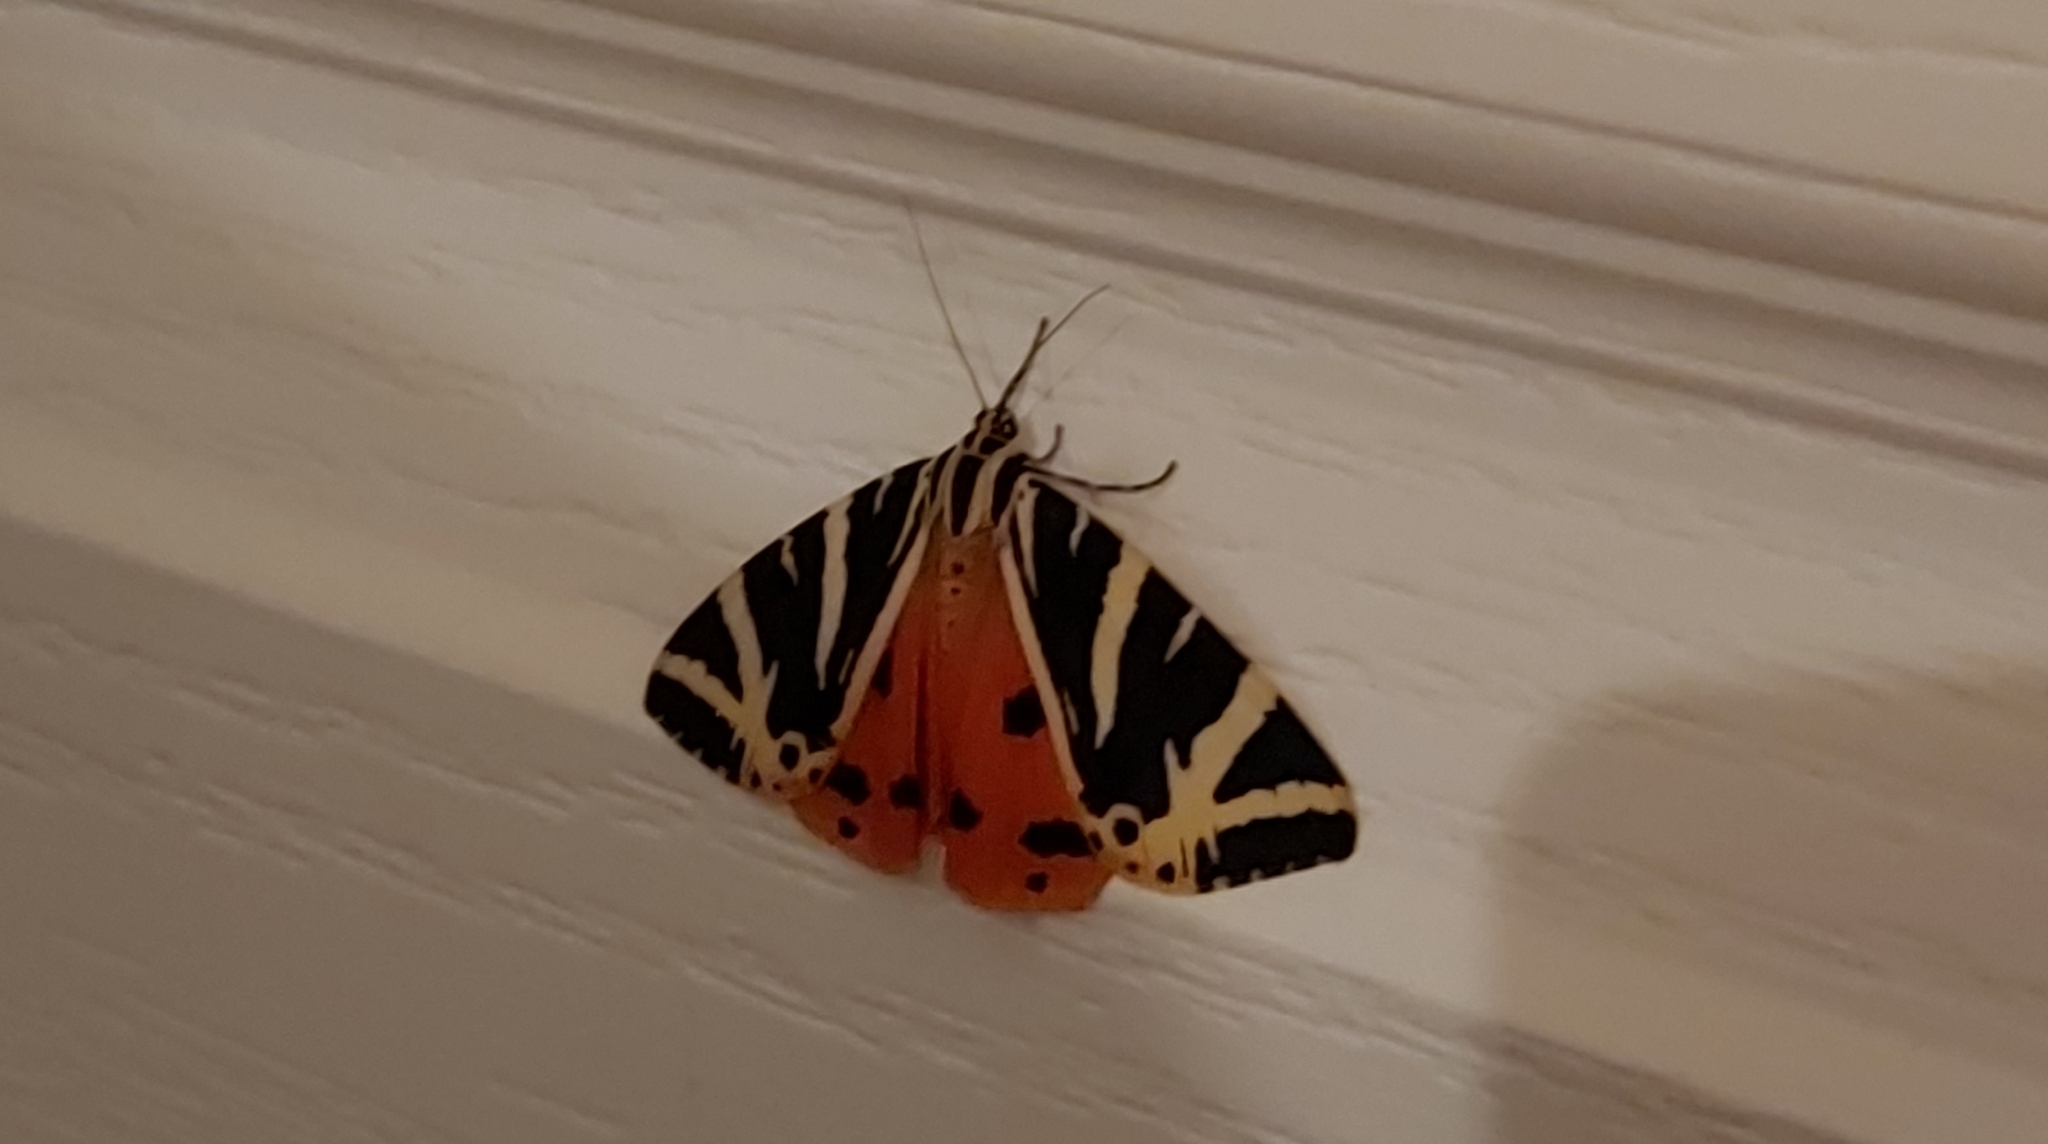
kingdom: Animalia
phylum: Arthropoda
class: Insecta
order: Lepidoptera
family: Erebidae
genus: Euplagia
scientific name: Euplagia quadripunctaria
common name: Jersey tiger
